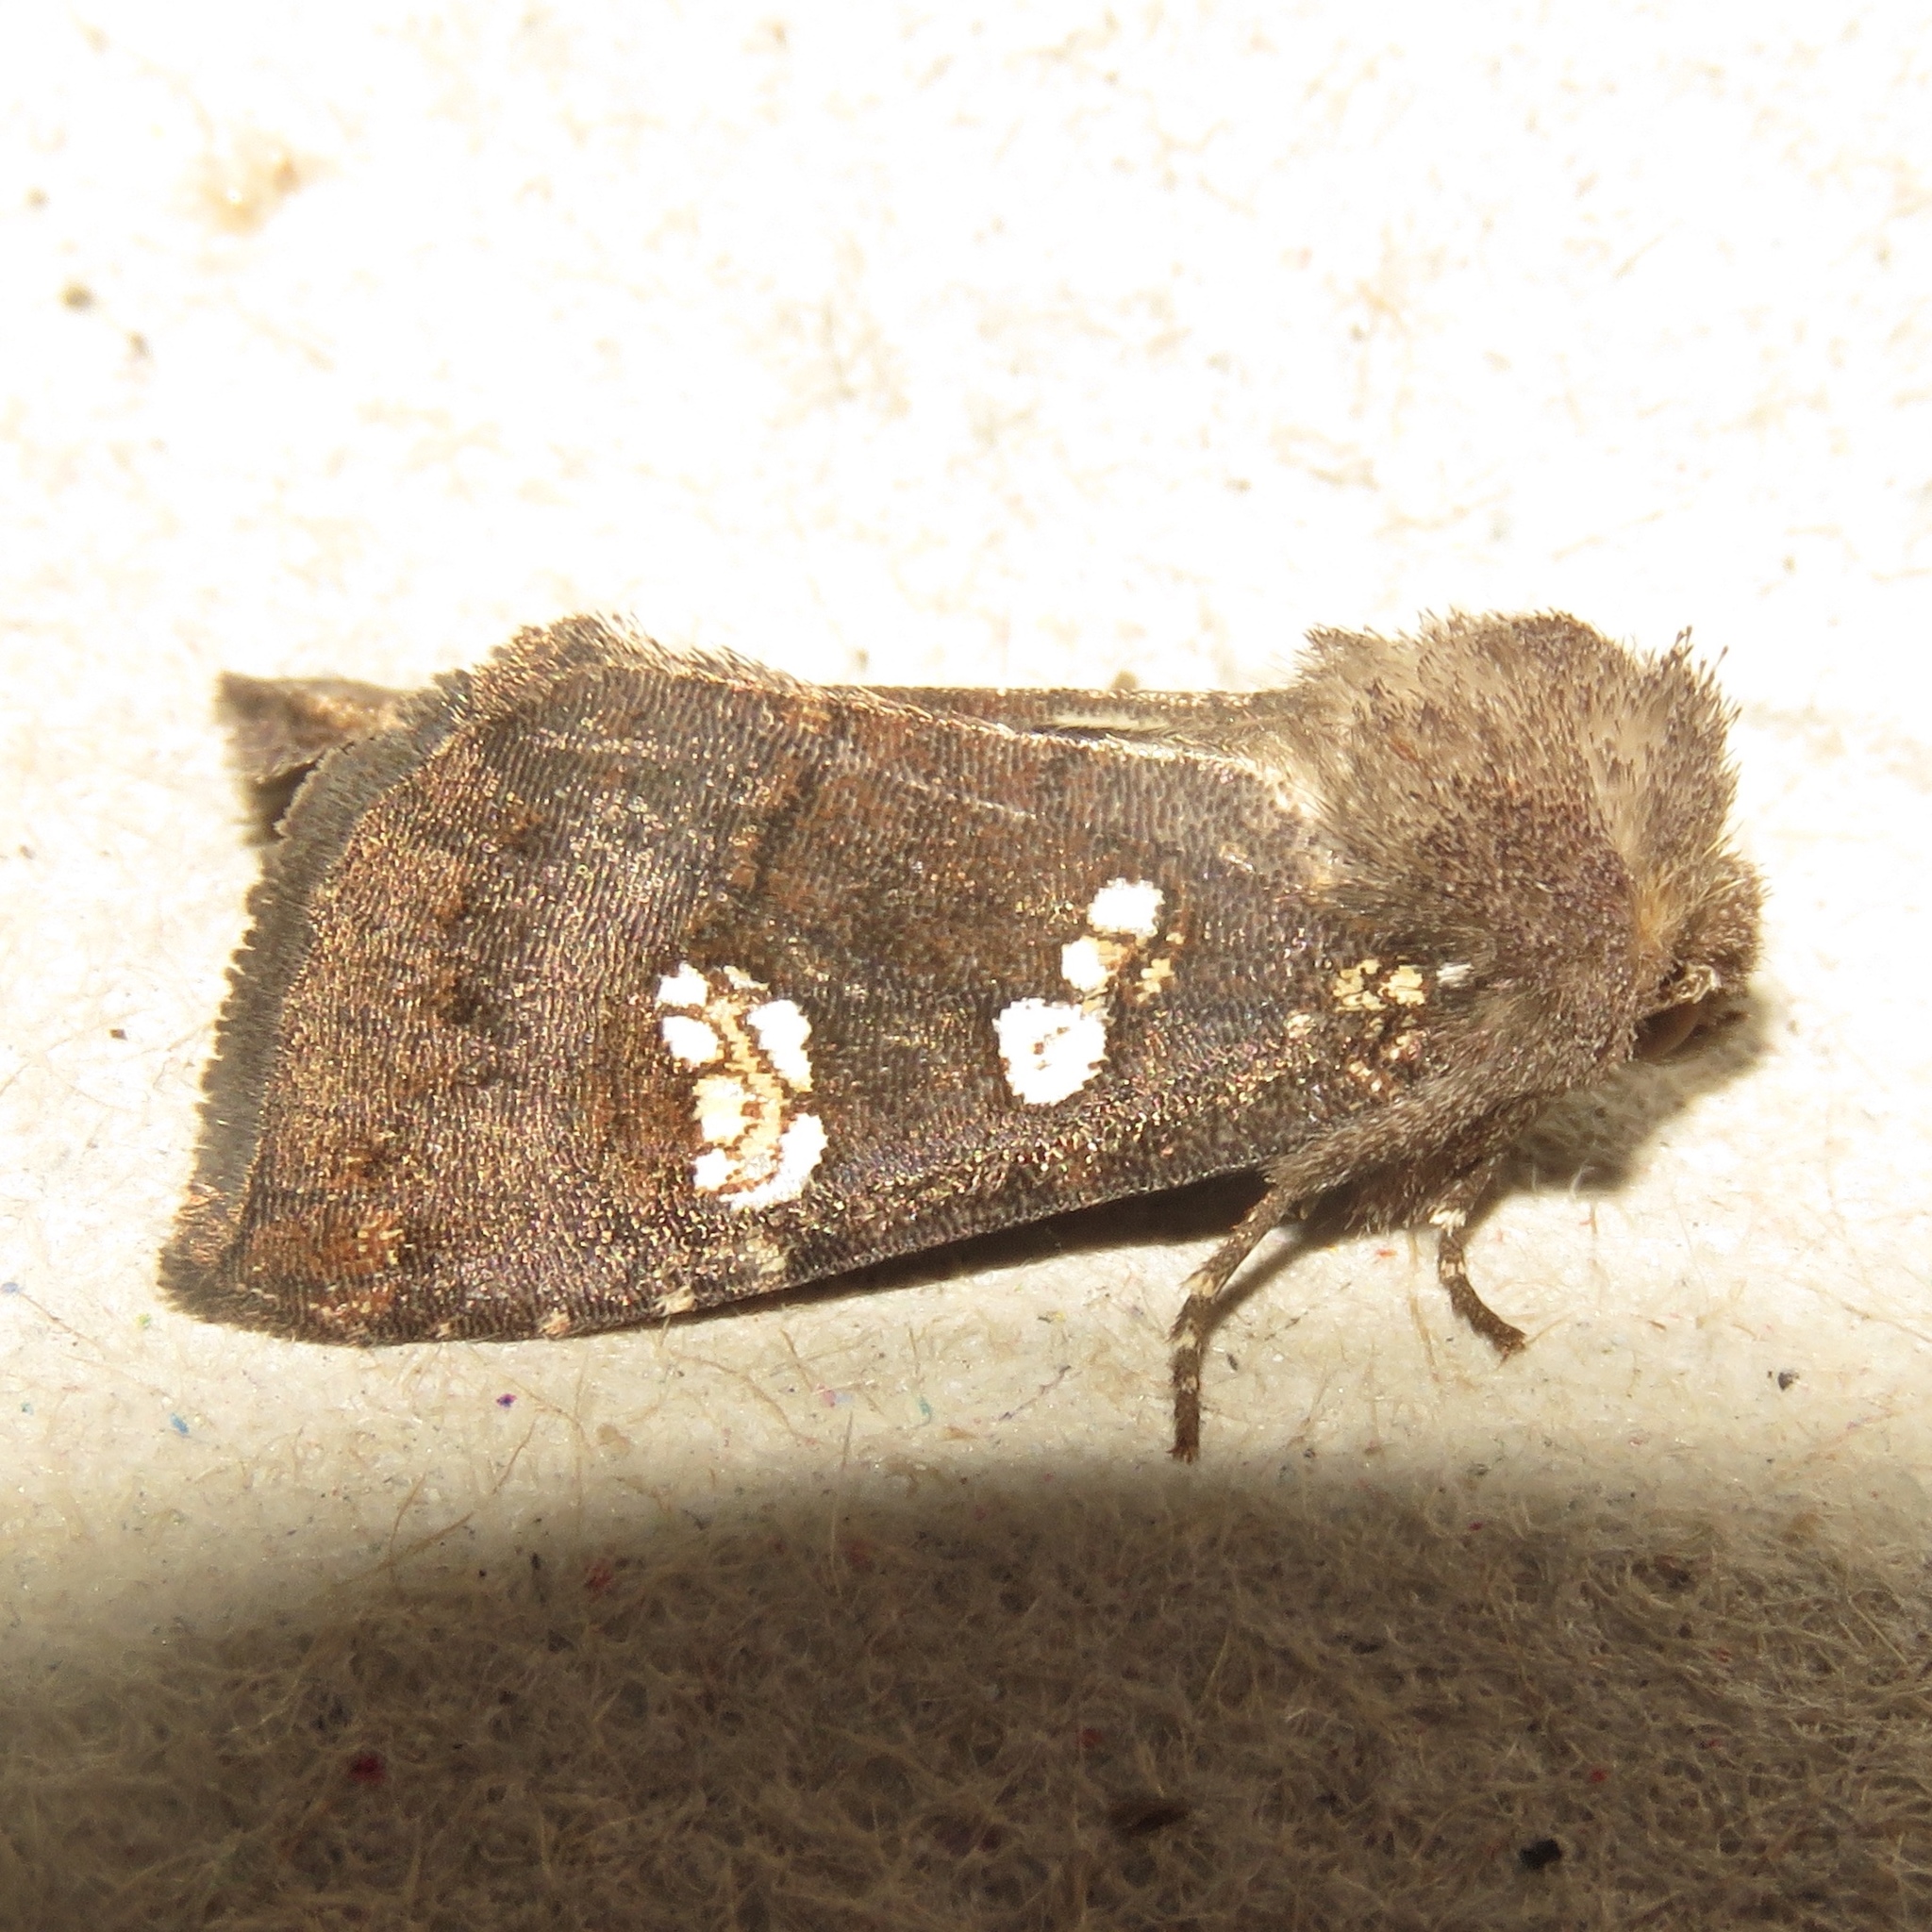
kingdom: Animalia
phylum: Arthropoda
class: Insecta
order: Lepidoptera
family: Noctuidae
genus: Papaipema
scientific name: Papaipema unimoda
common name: Meadow rue borer moth
